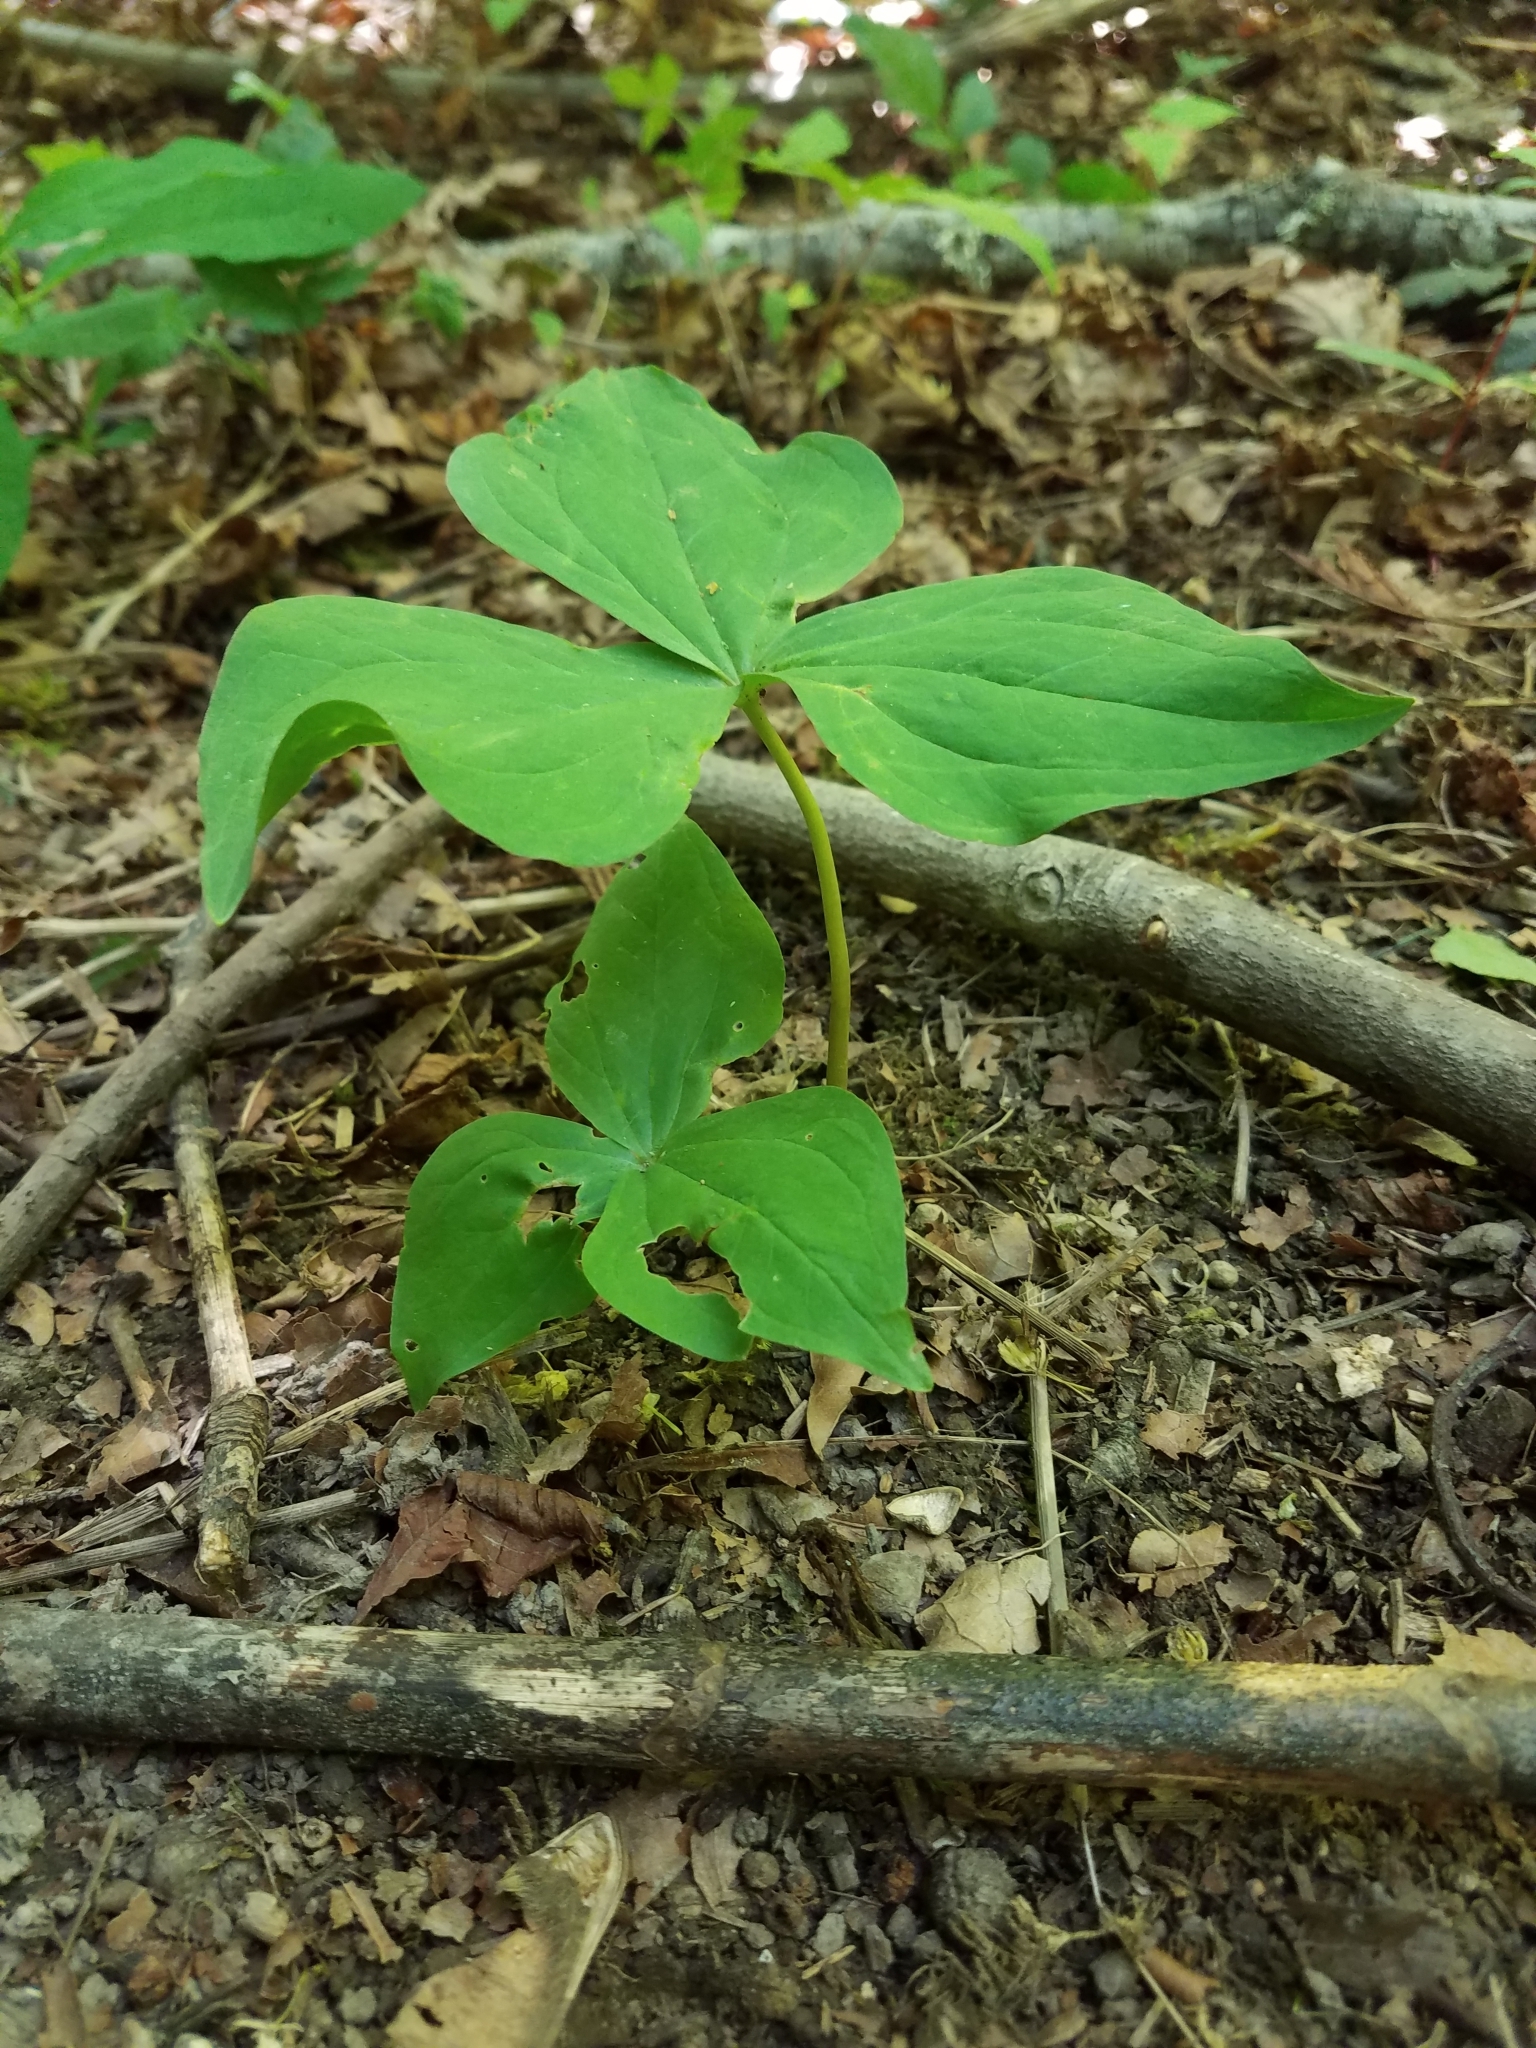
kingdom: Plantae
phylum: Tracheophyta
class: Liliopsida
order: Liliales
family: Melanthiaceae
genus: Trillium
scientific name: Trillium ovatum
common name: Pacific trillium
